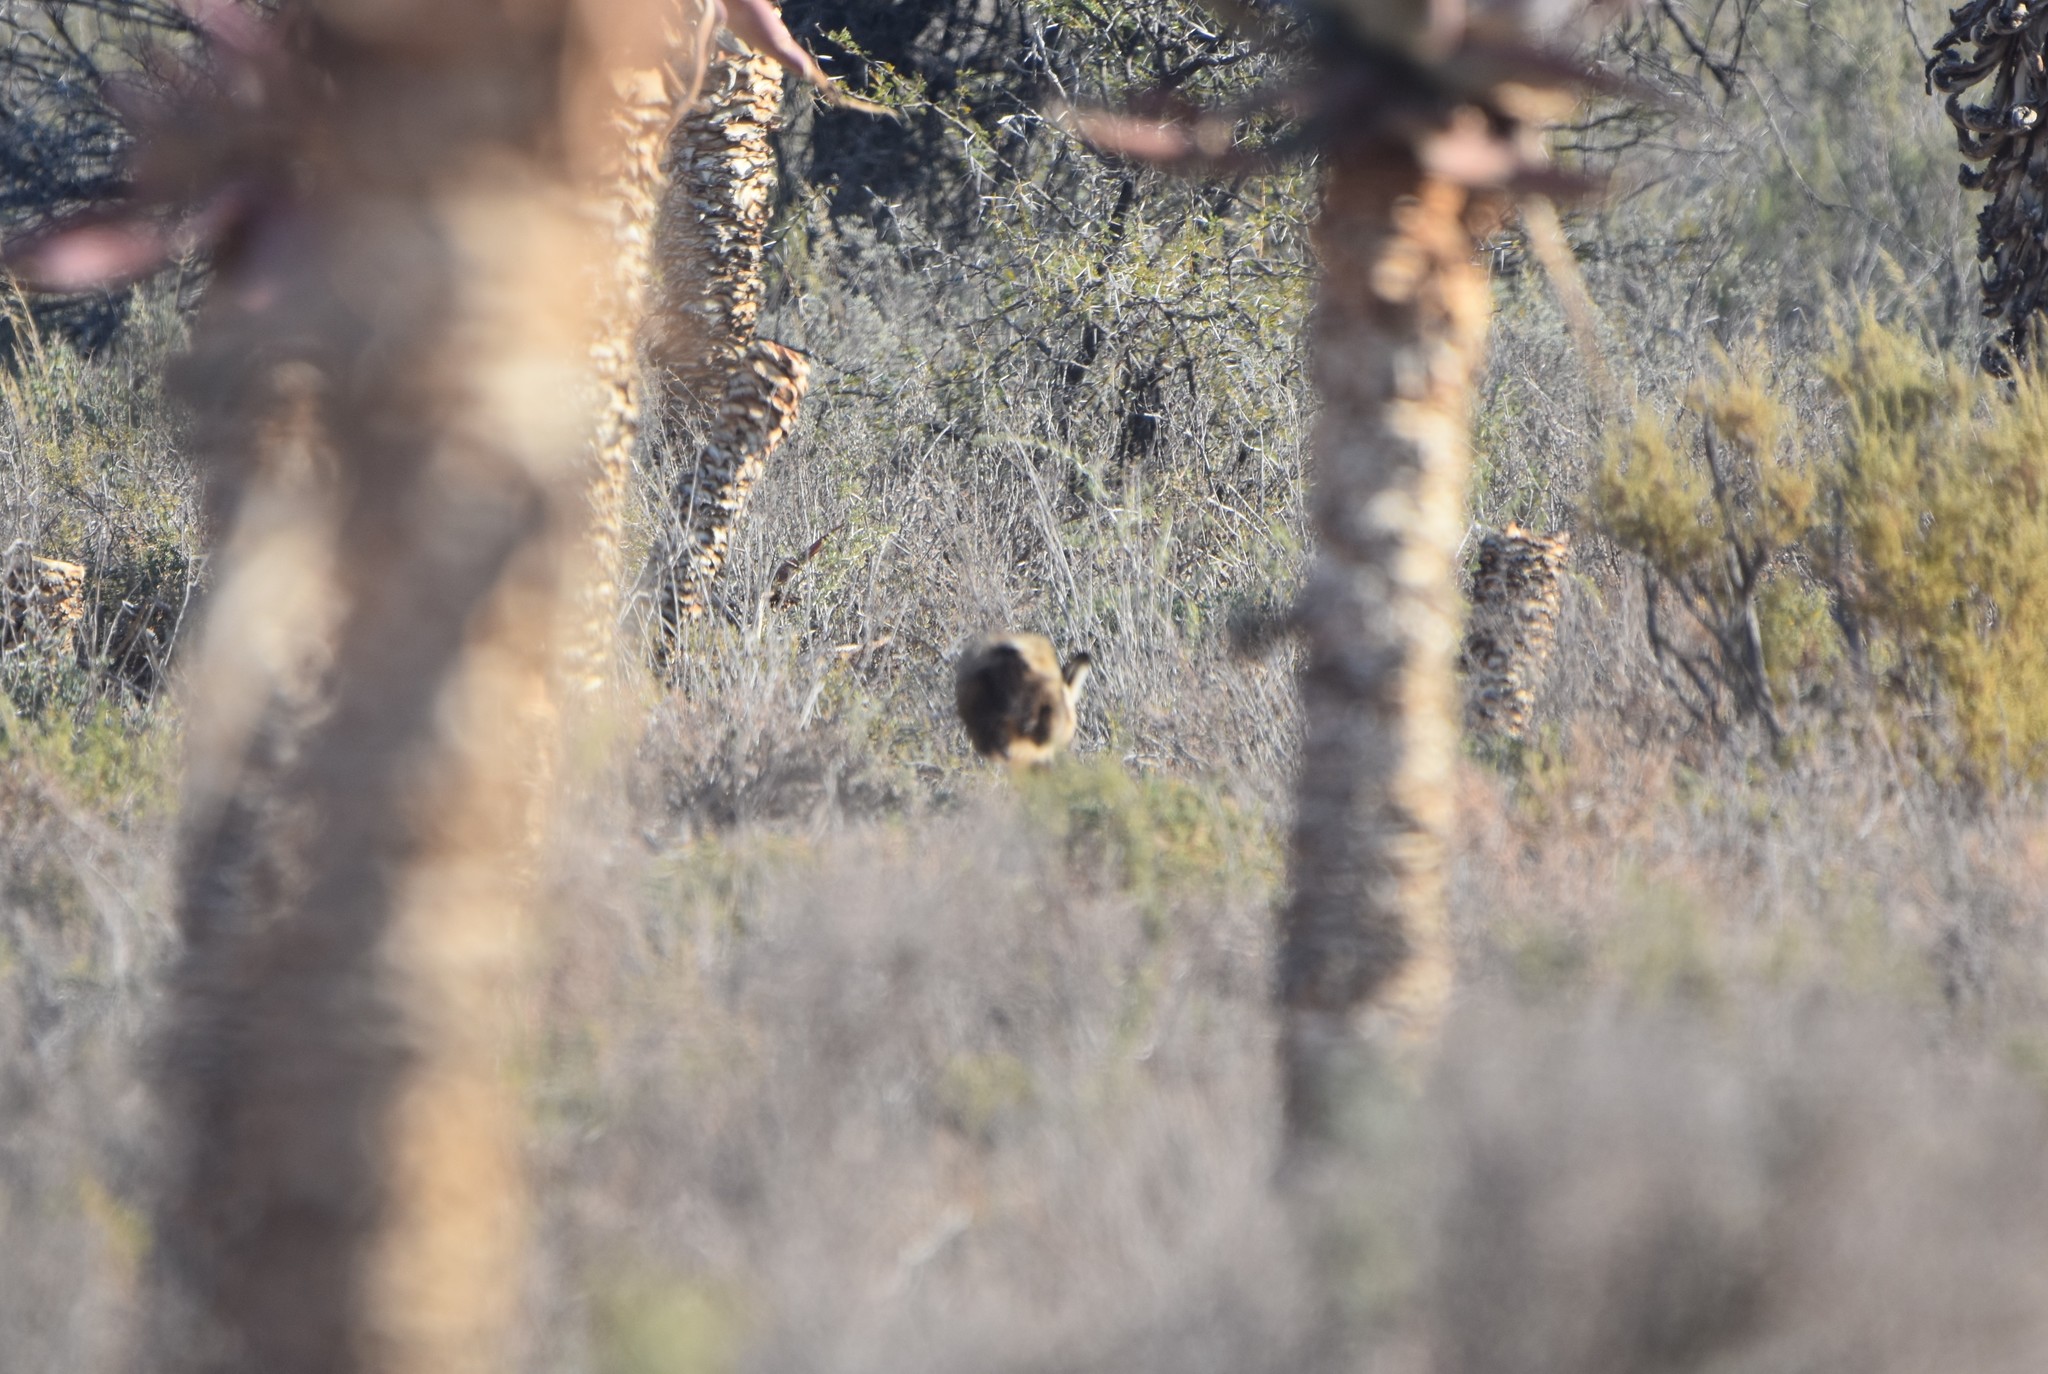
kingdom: Animalia
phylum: Chordata
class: Mammalia
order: Carnivora
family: Canidae
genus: Otocyon
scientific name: Otocyon megalotis
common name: Bat-eared fox
